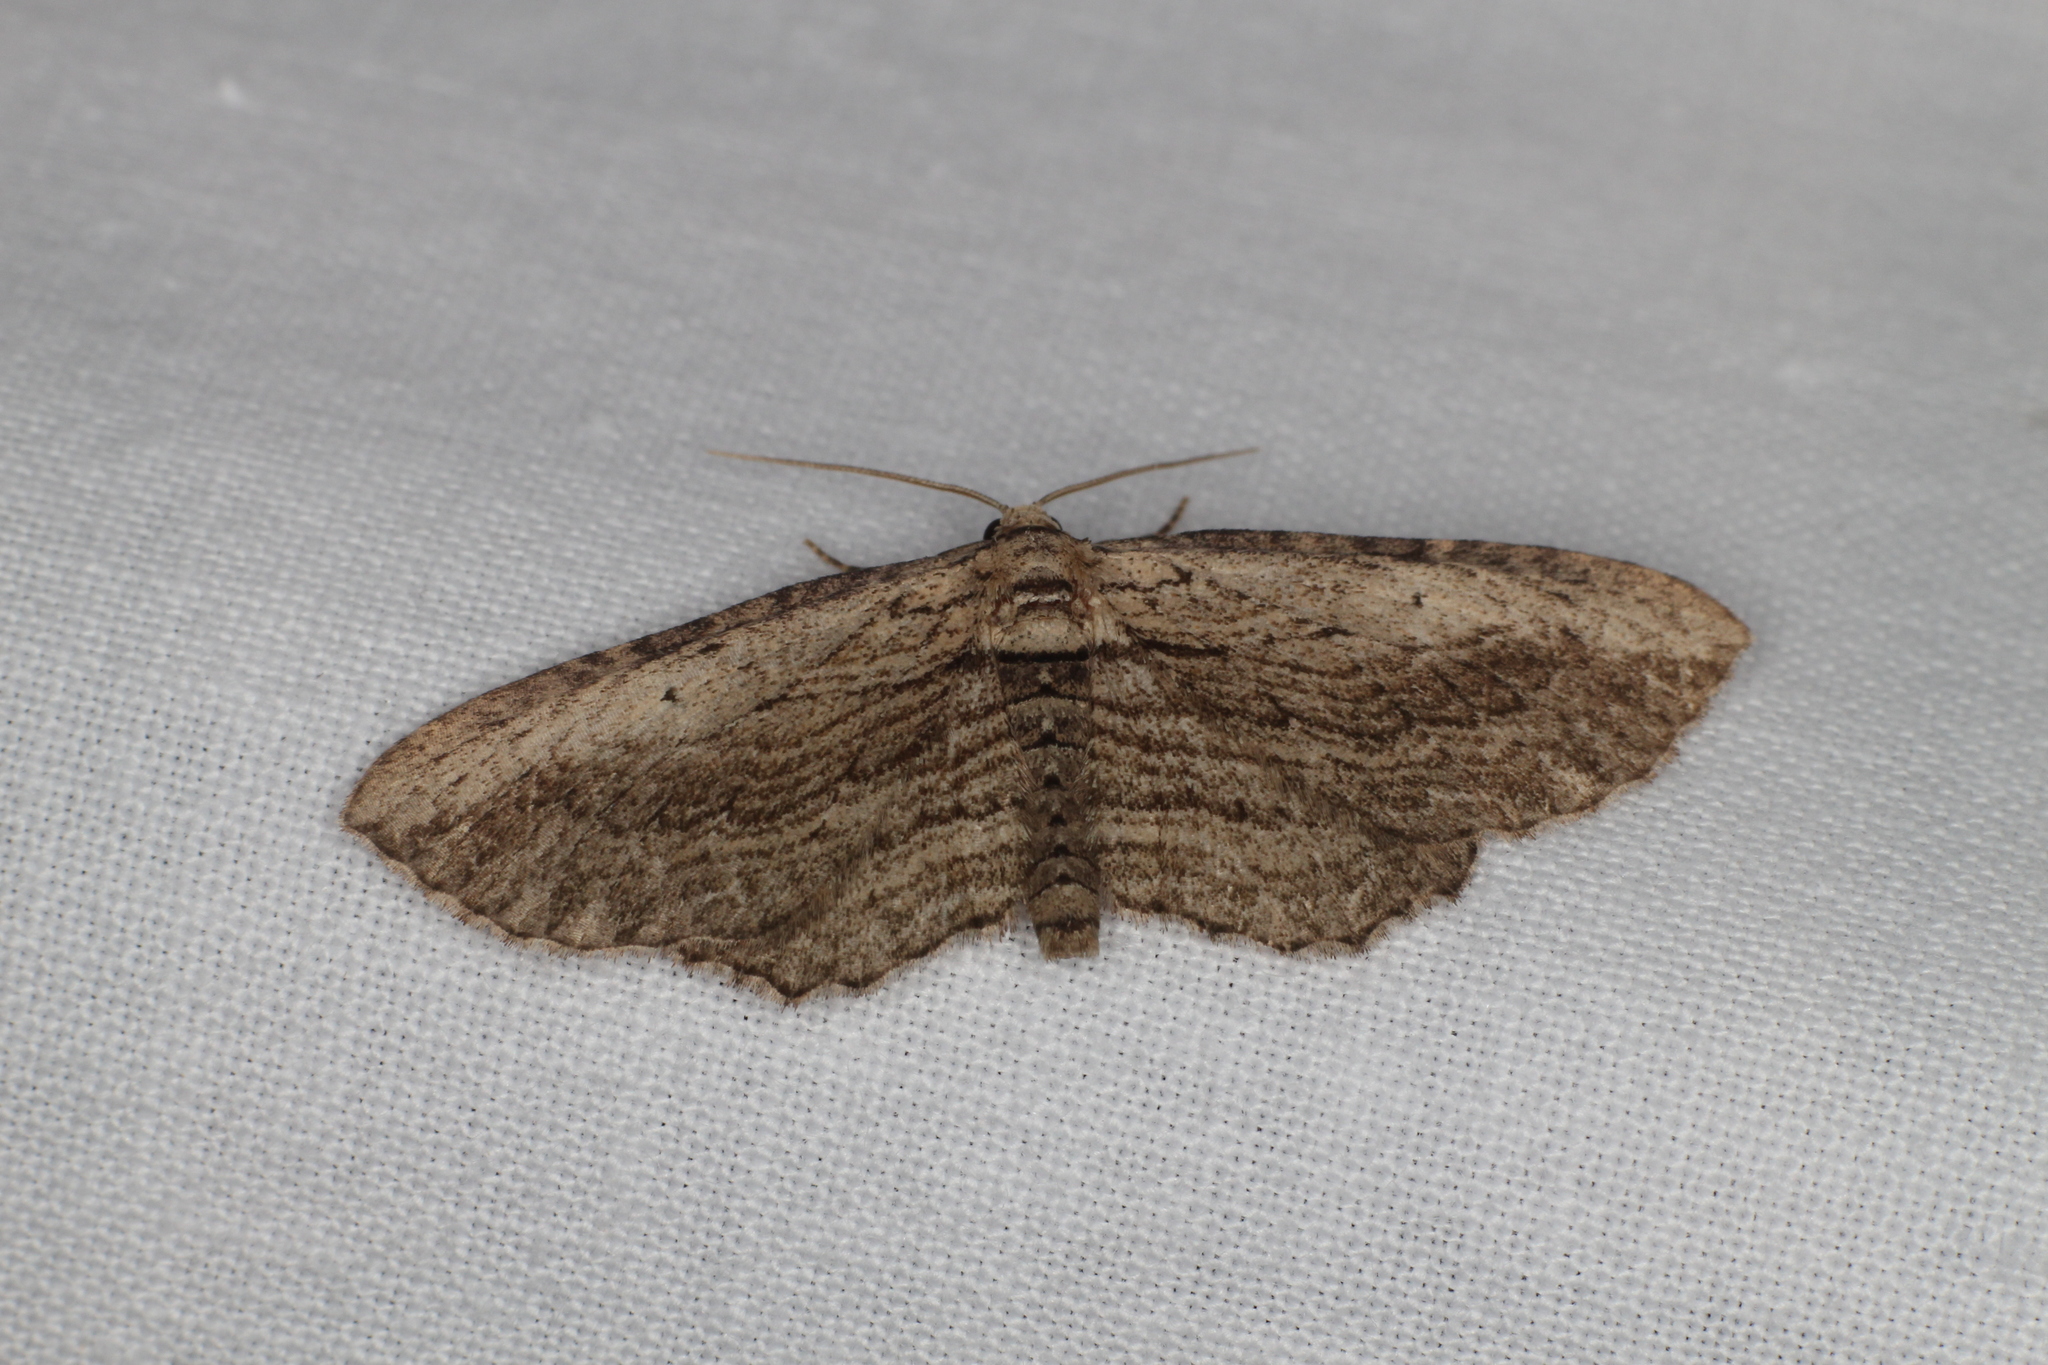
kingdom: Animalia
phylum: Arthropoda
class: Insecta
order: Lepidoptera
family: Geometridae
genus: Horisme
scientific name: Horisme intestinata
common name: Brown bark carpet
